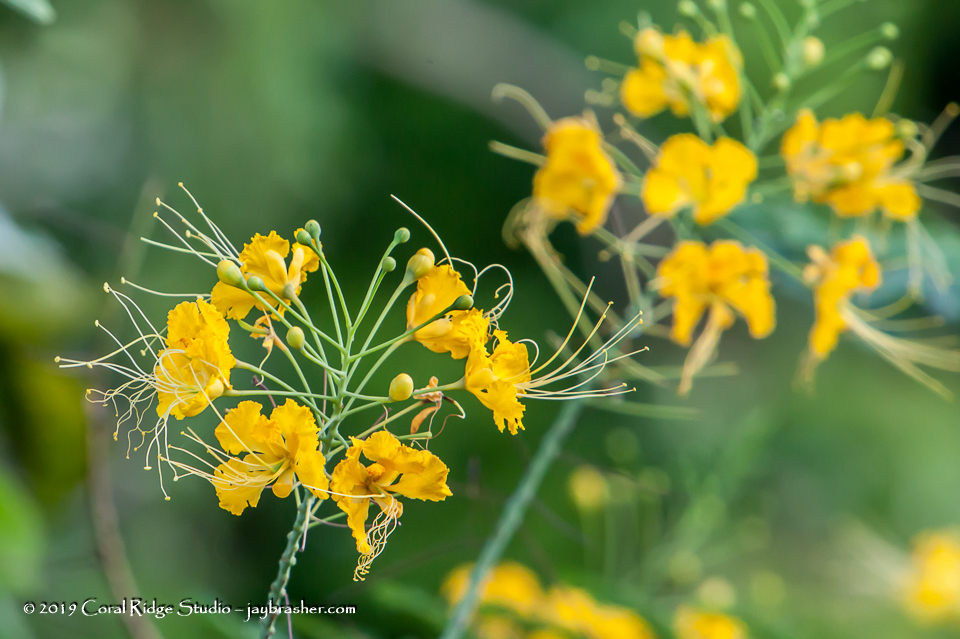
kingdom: Plantae
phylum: Tracheophyta
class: Magnoliopsida
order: Fabales
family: Fabaceae
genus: Caesalpinia
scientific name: Caesalpinia pulcherrima
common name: Pride-of-barbados
